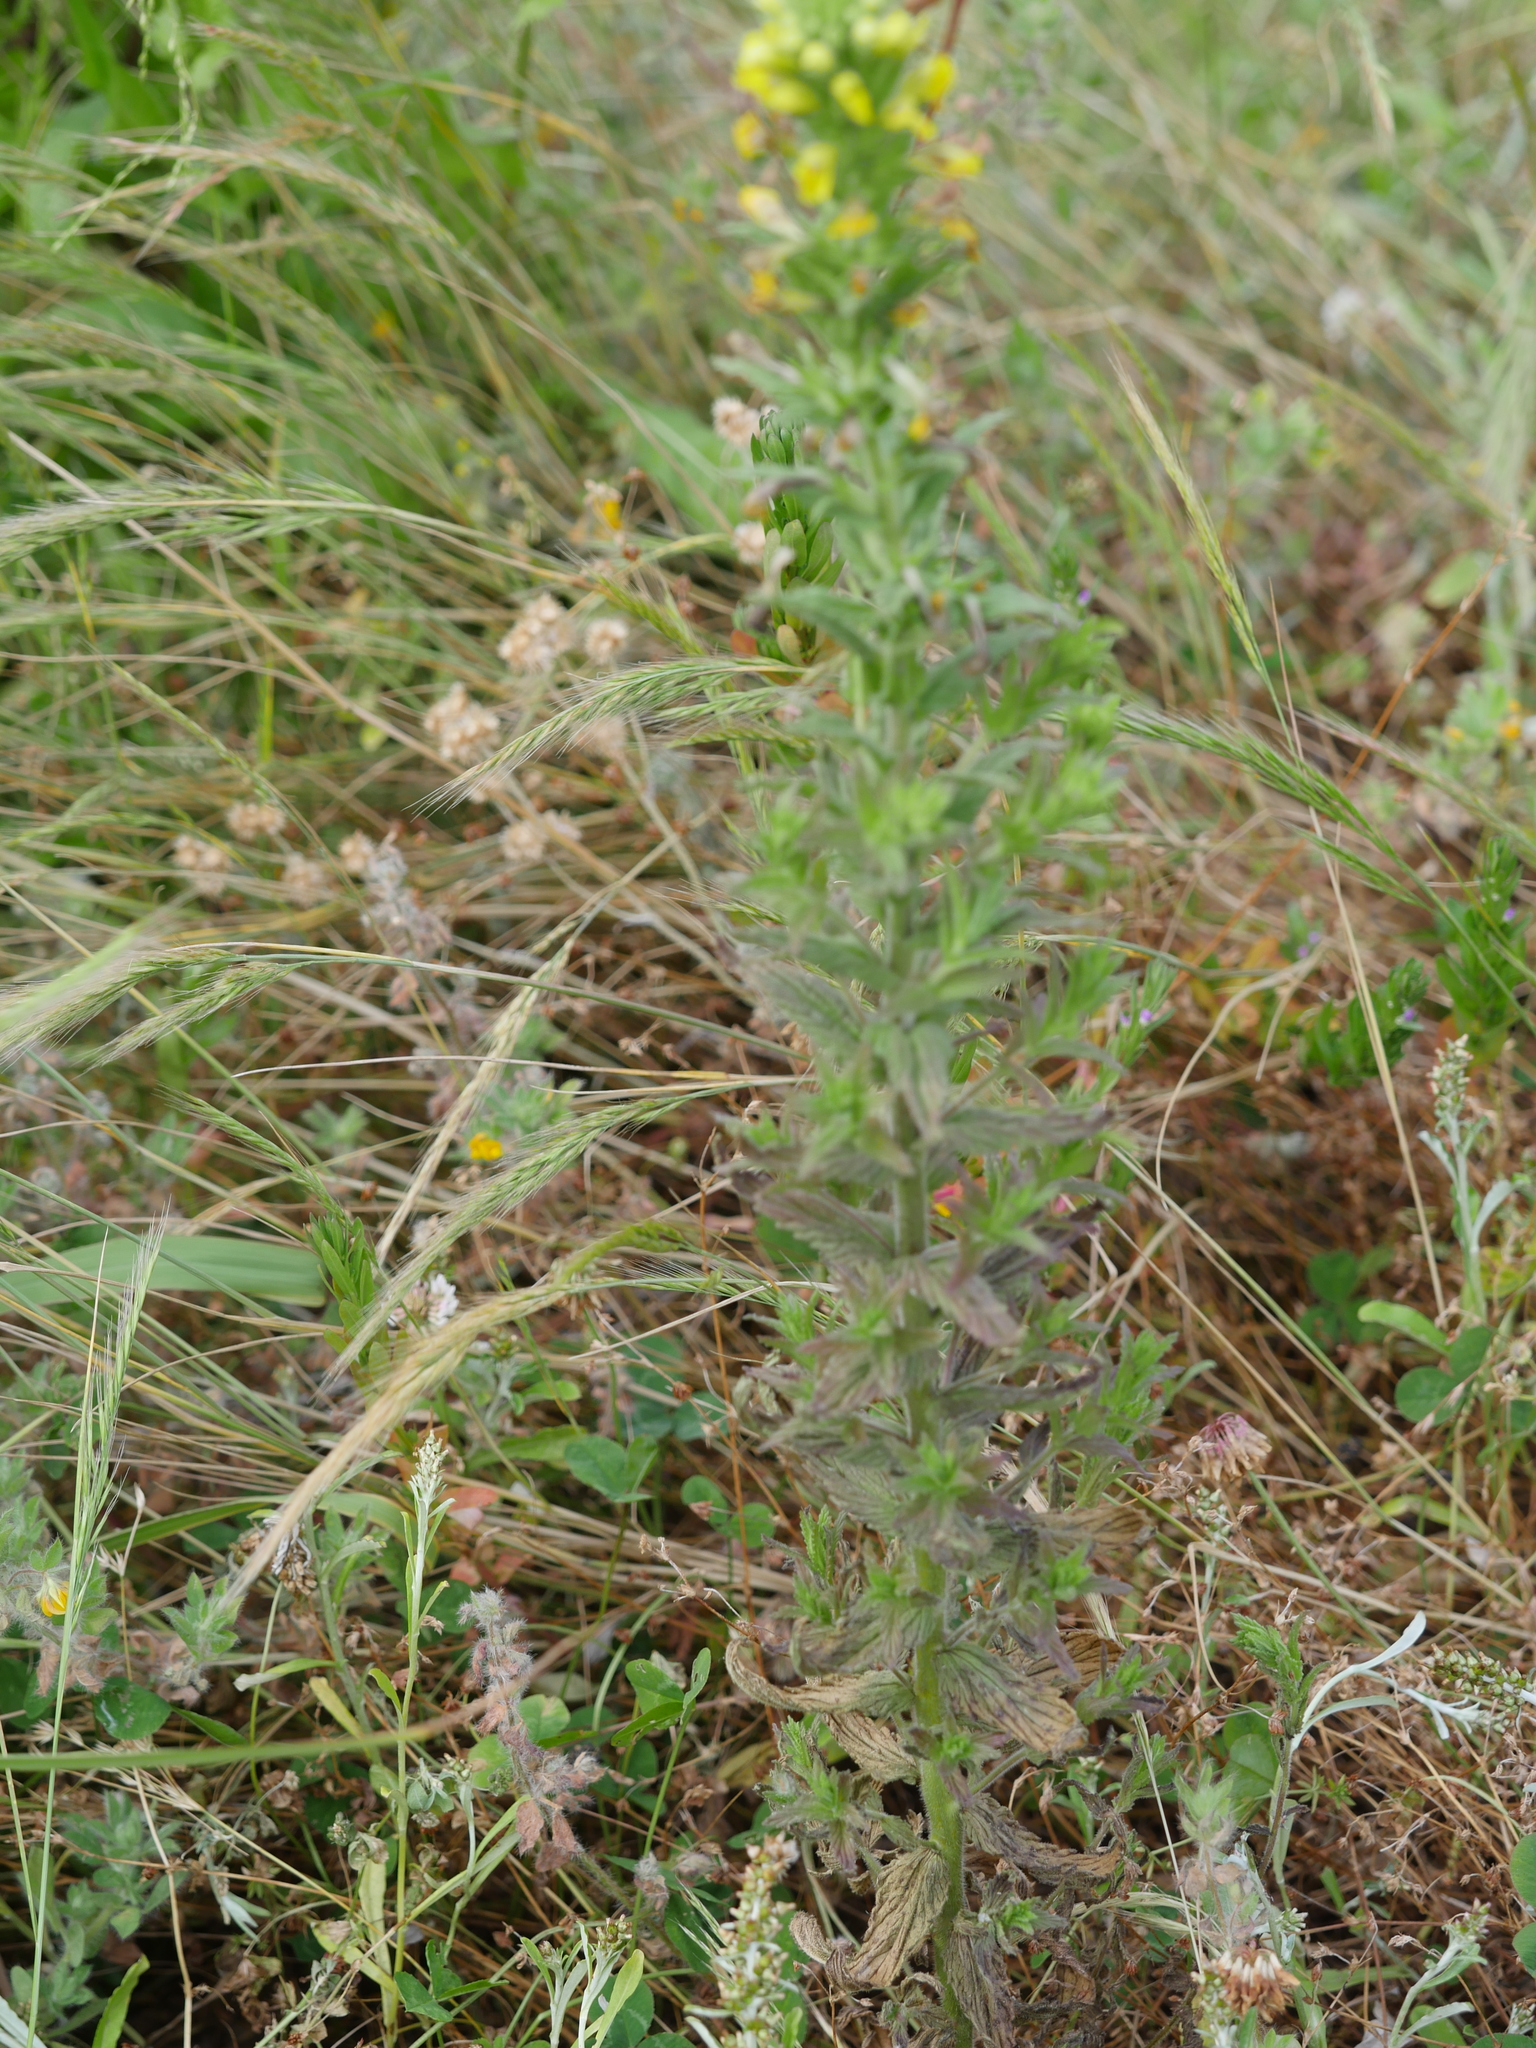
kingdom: Plantae
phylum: Tracheophyta
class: Magnoliopsida
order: Lamiales
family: Orobanchaceae
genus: Bellardia
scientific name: Bellardia viscosa
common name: Sticky parentucellia
